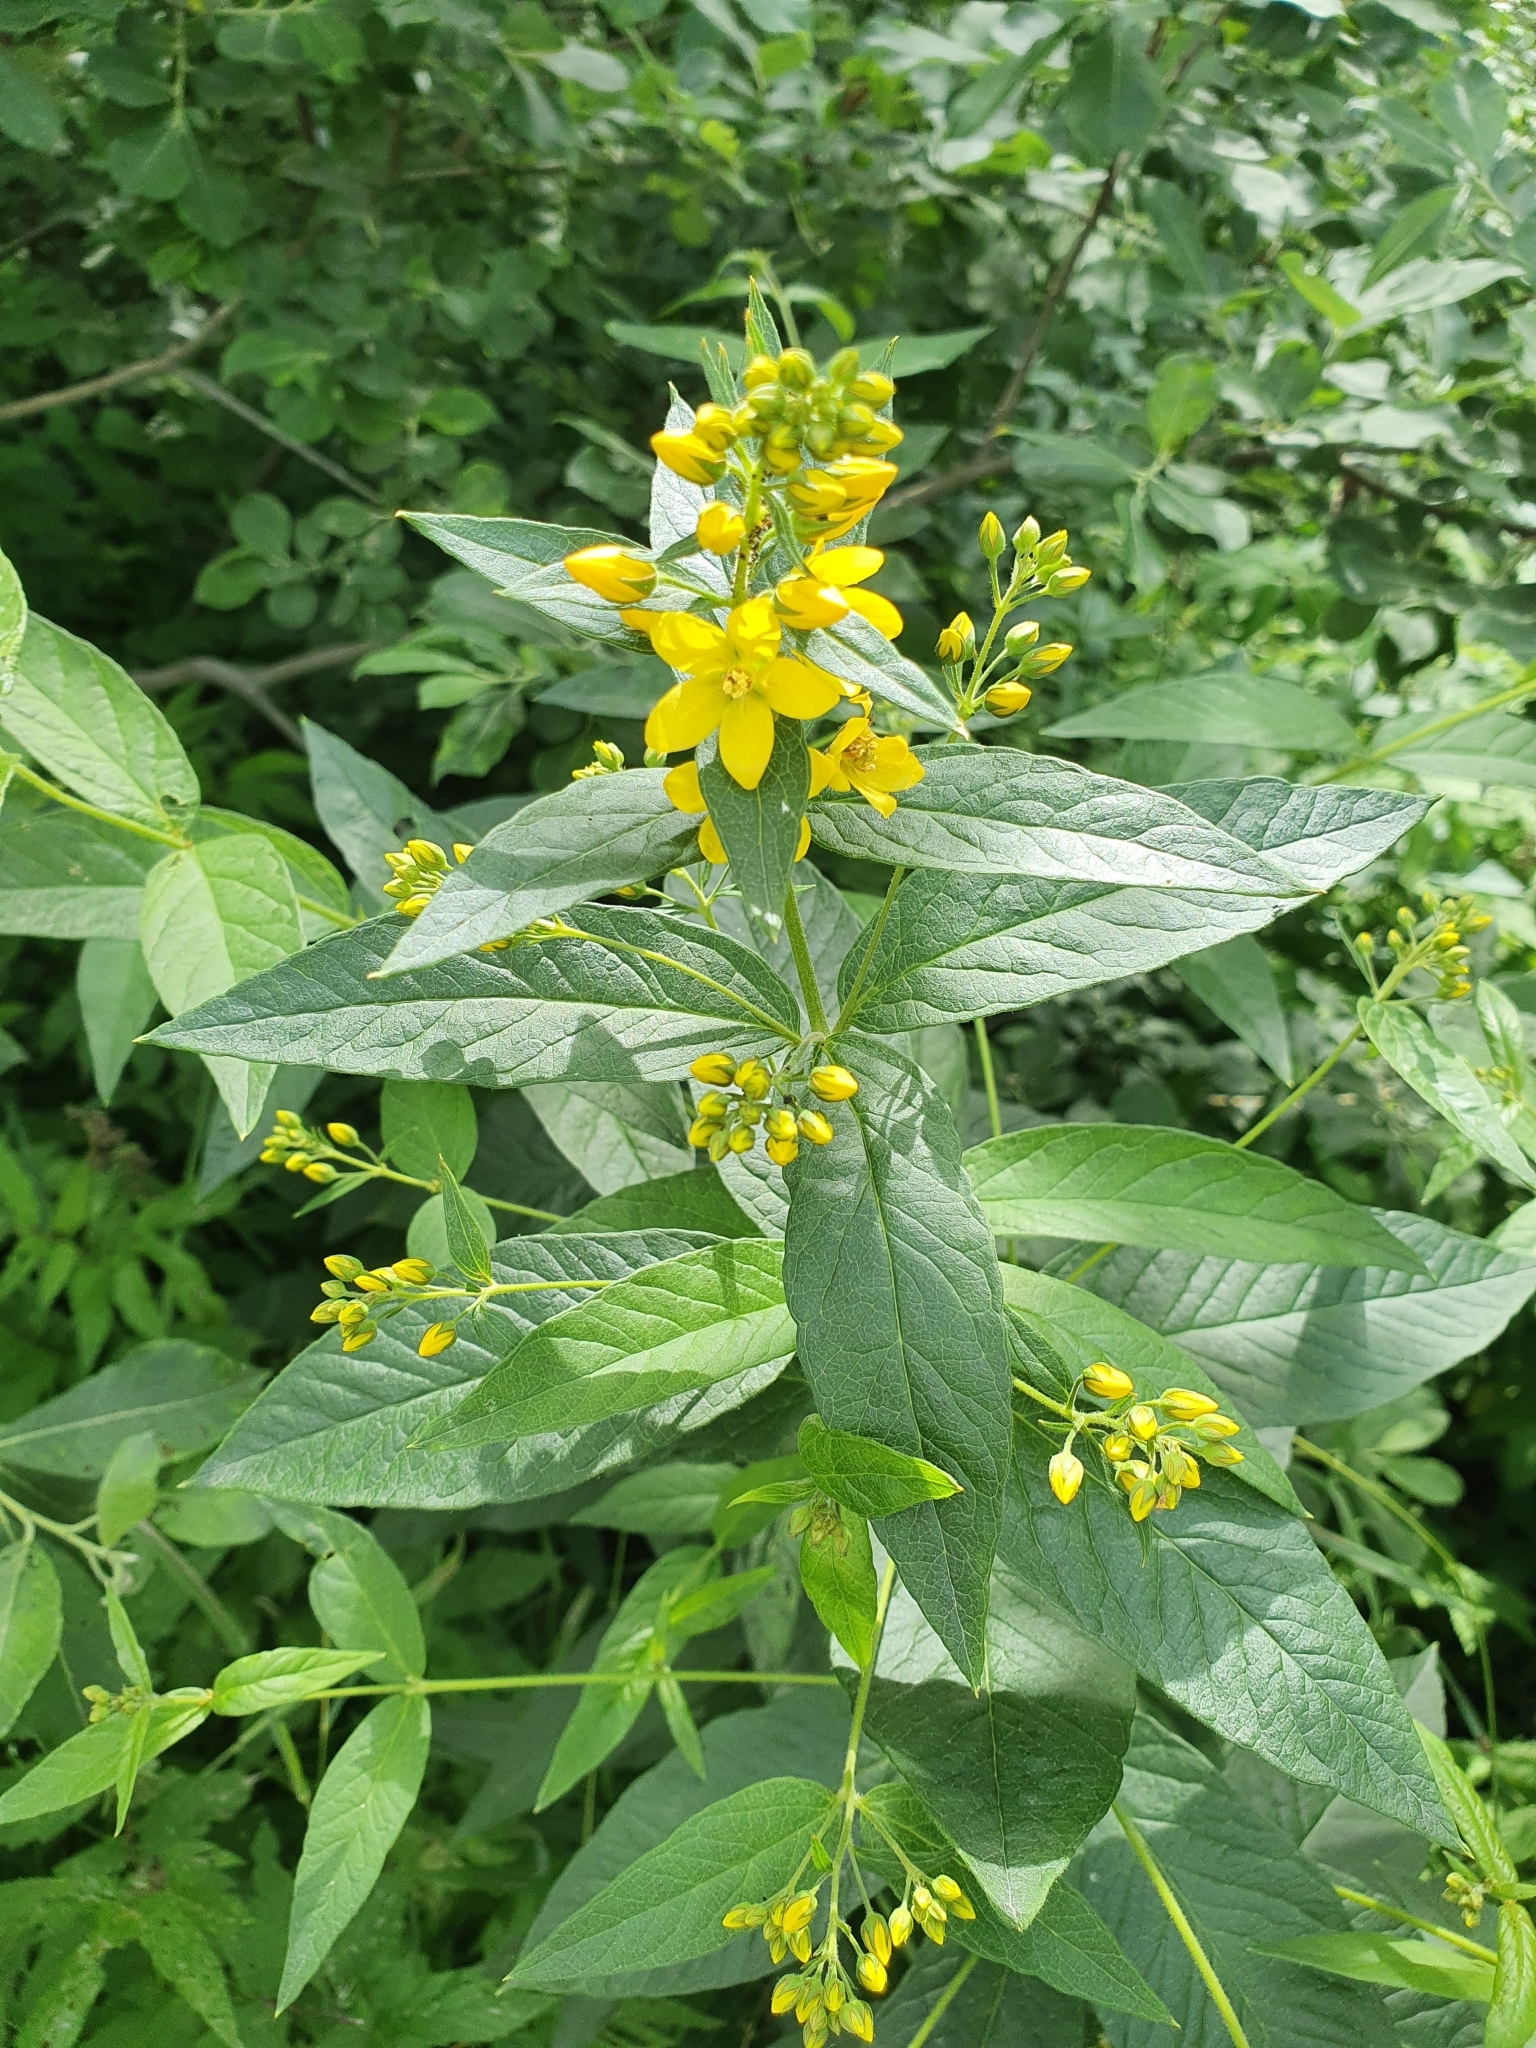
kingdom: Plantae
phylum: Tracheophyta
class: Magnoliopsida
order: Ericales
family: Primulaceae
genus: Lysimachia
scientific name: Lysimachia vulgaris
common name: Yellow loosestrife
